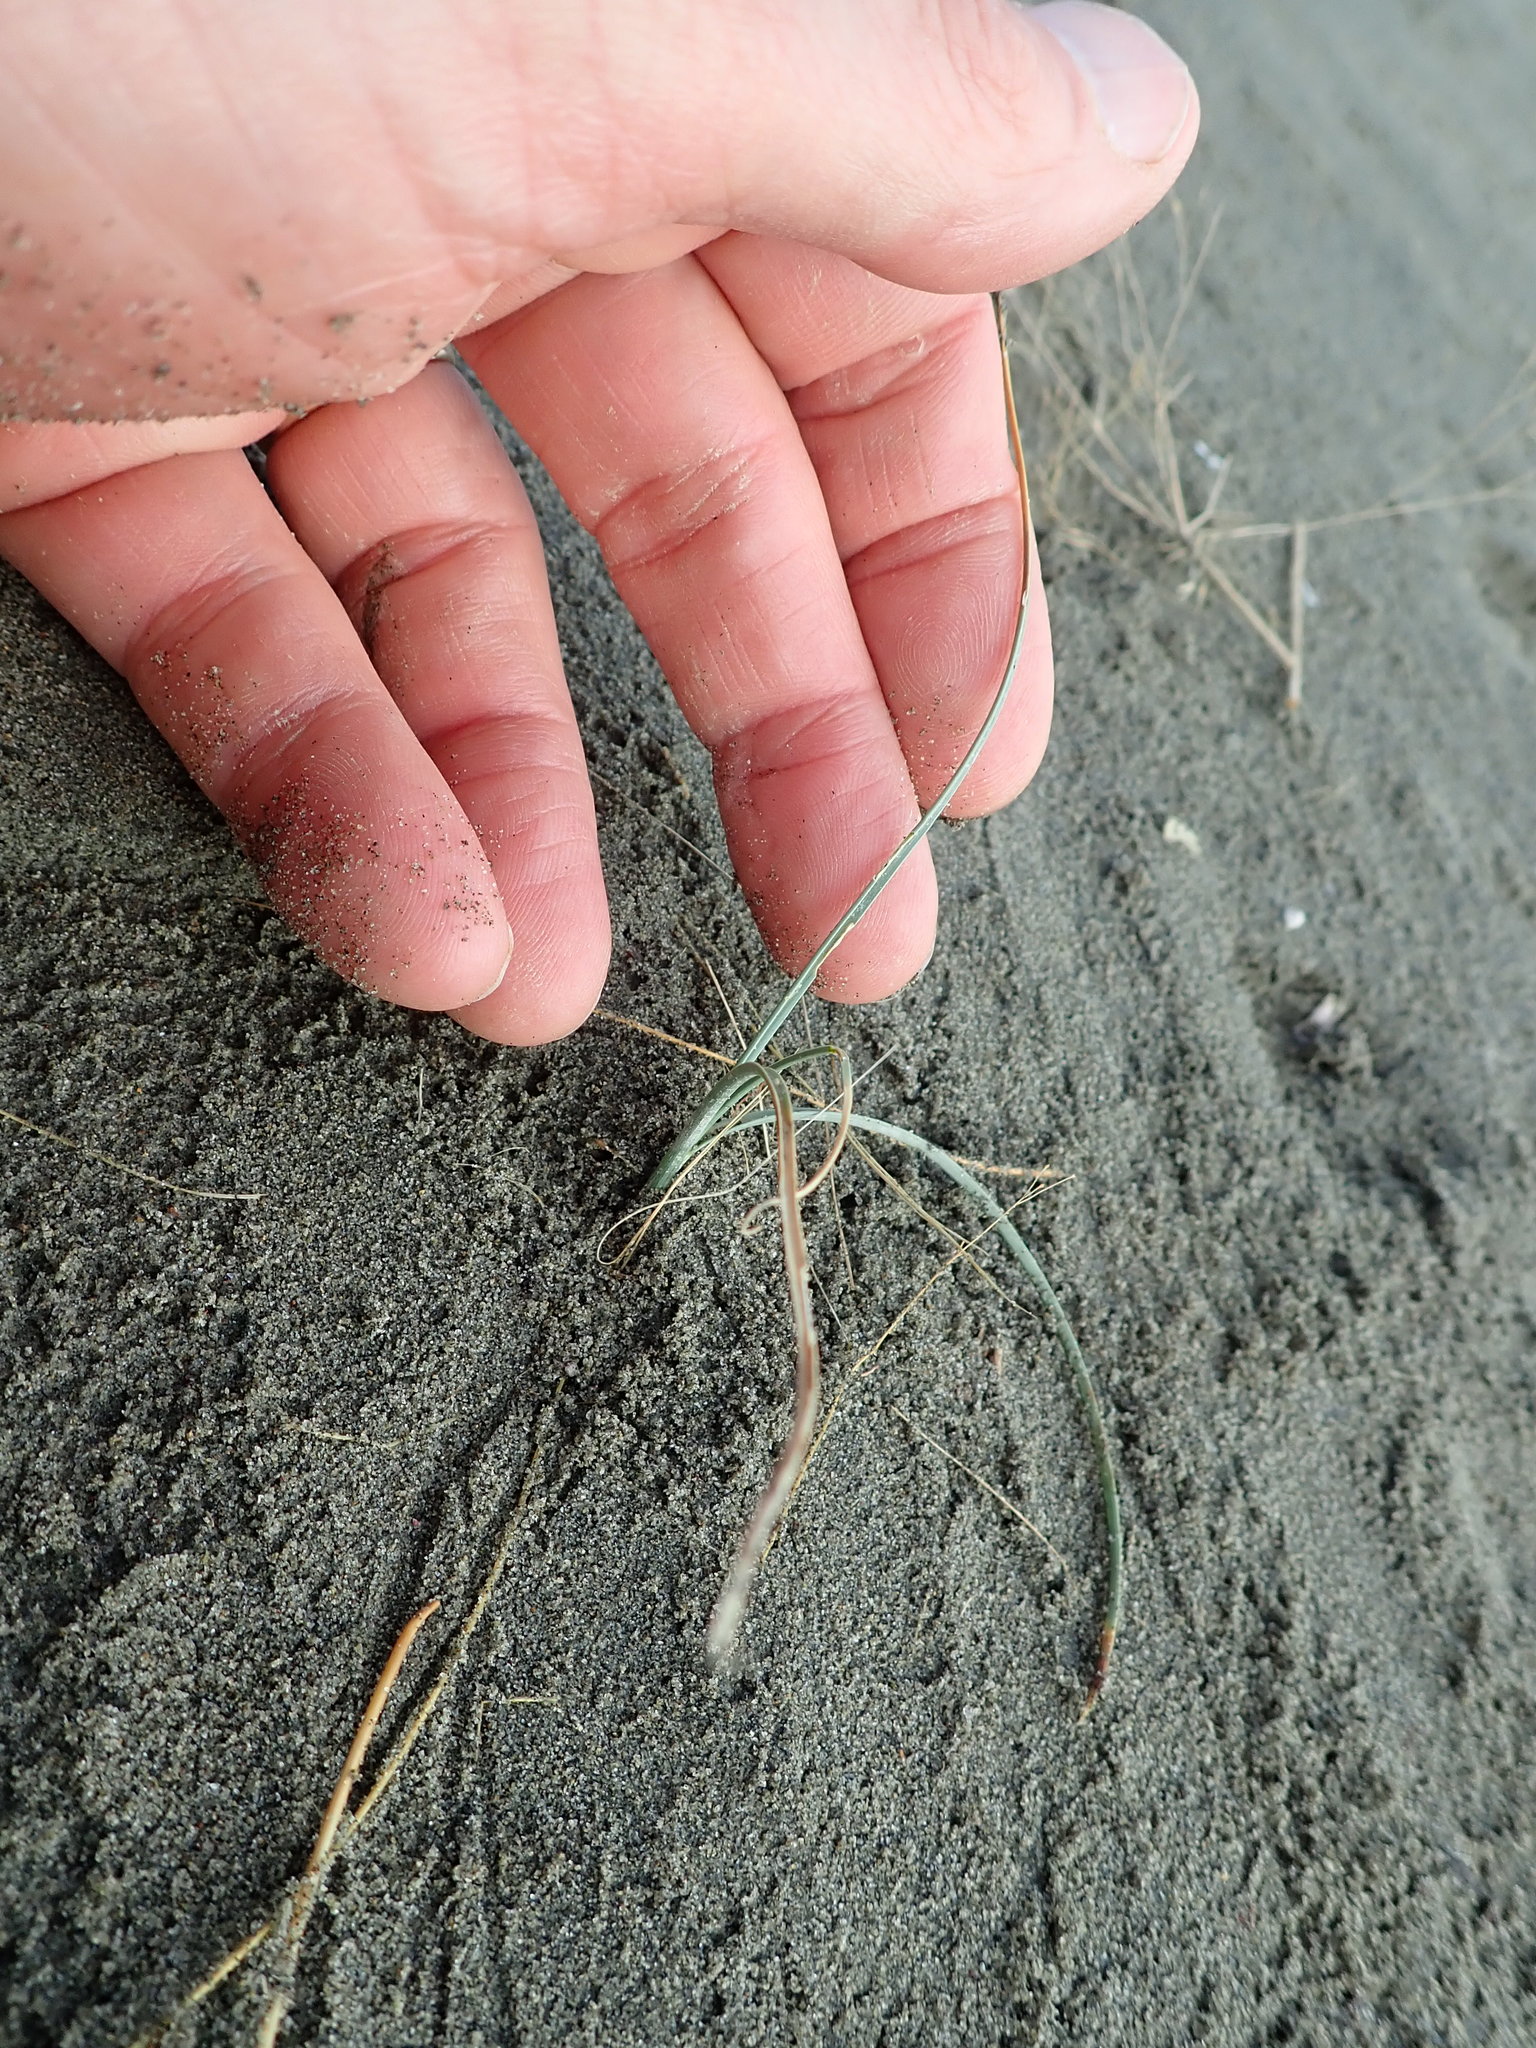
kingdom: Plantae
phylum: Tracheophyta
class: Liliopsida
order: Poales
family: Cyperaceae
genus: Carex
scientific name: Carex pumila
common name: Dwarf sedge
